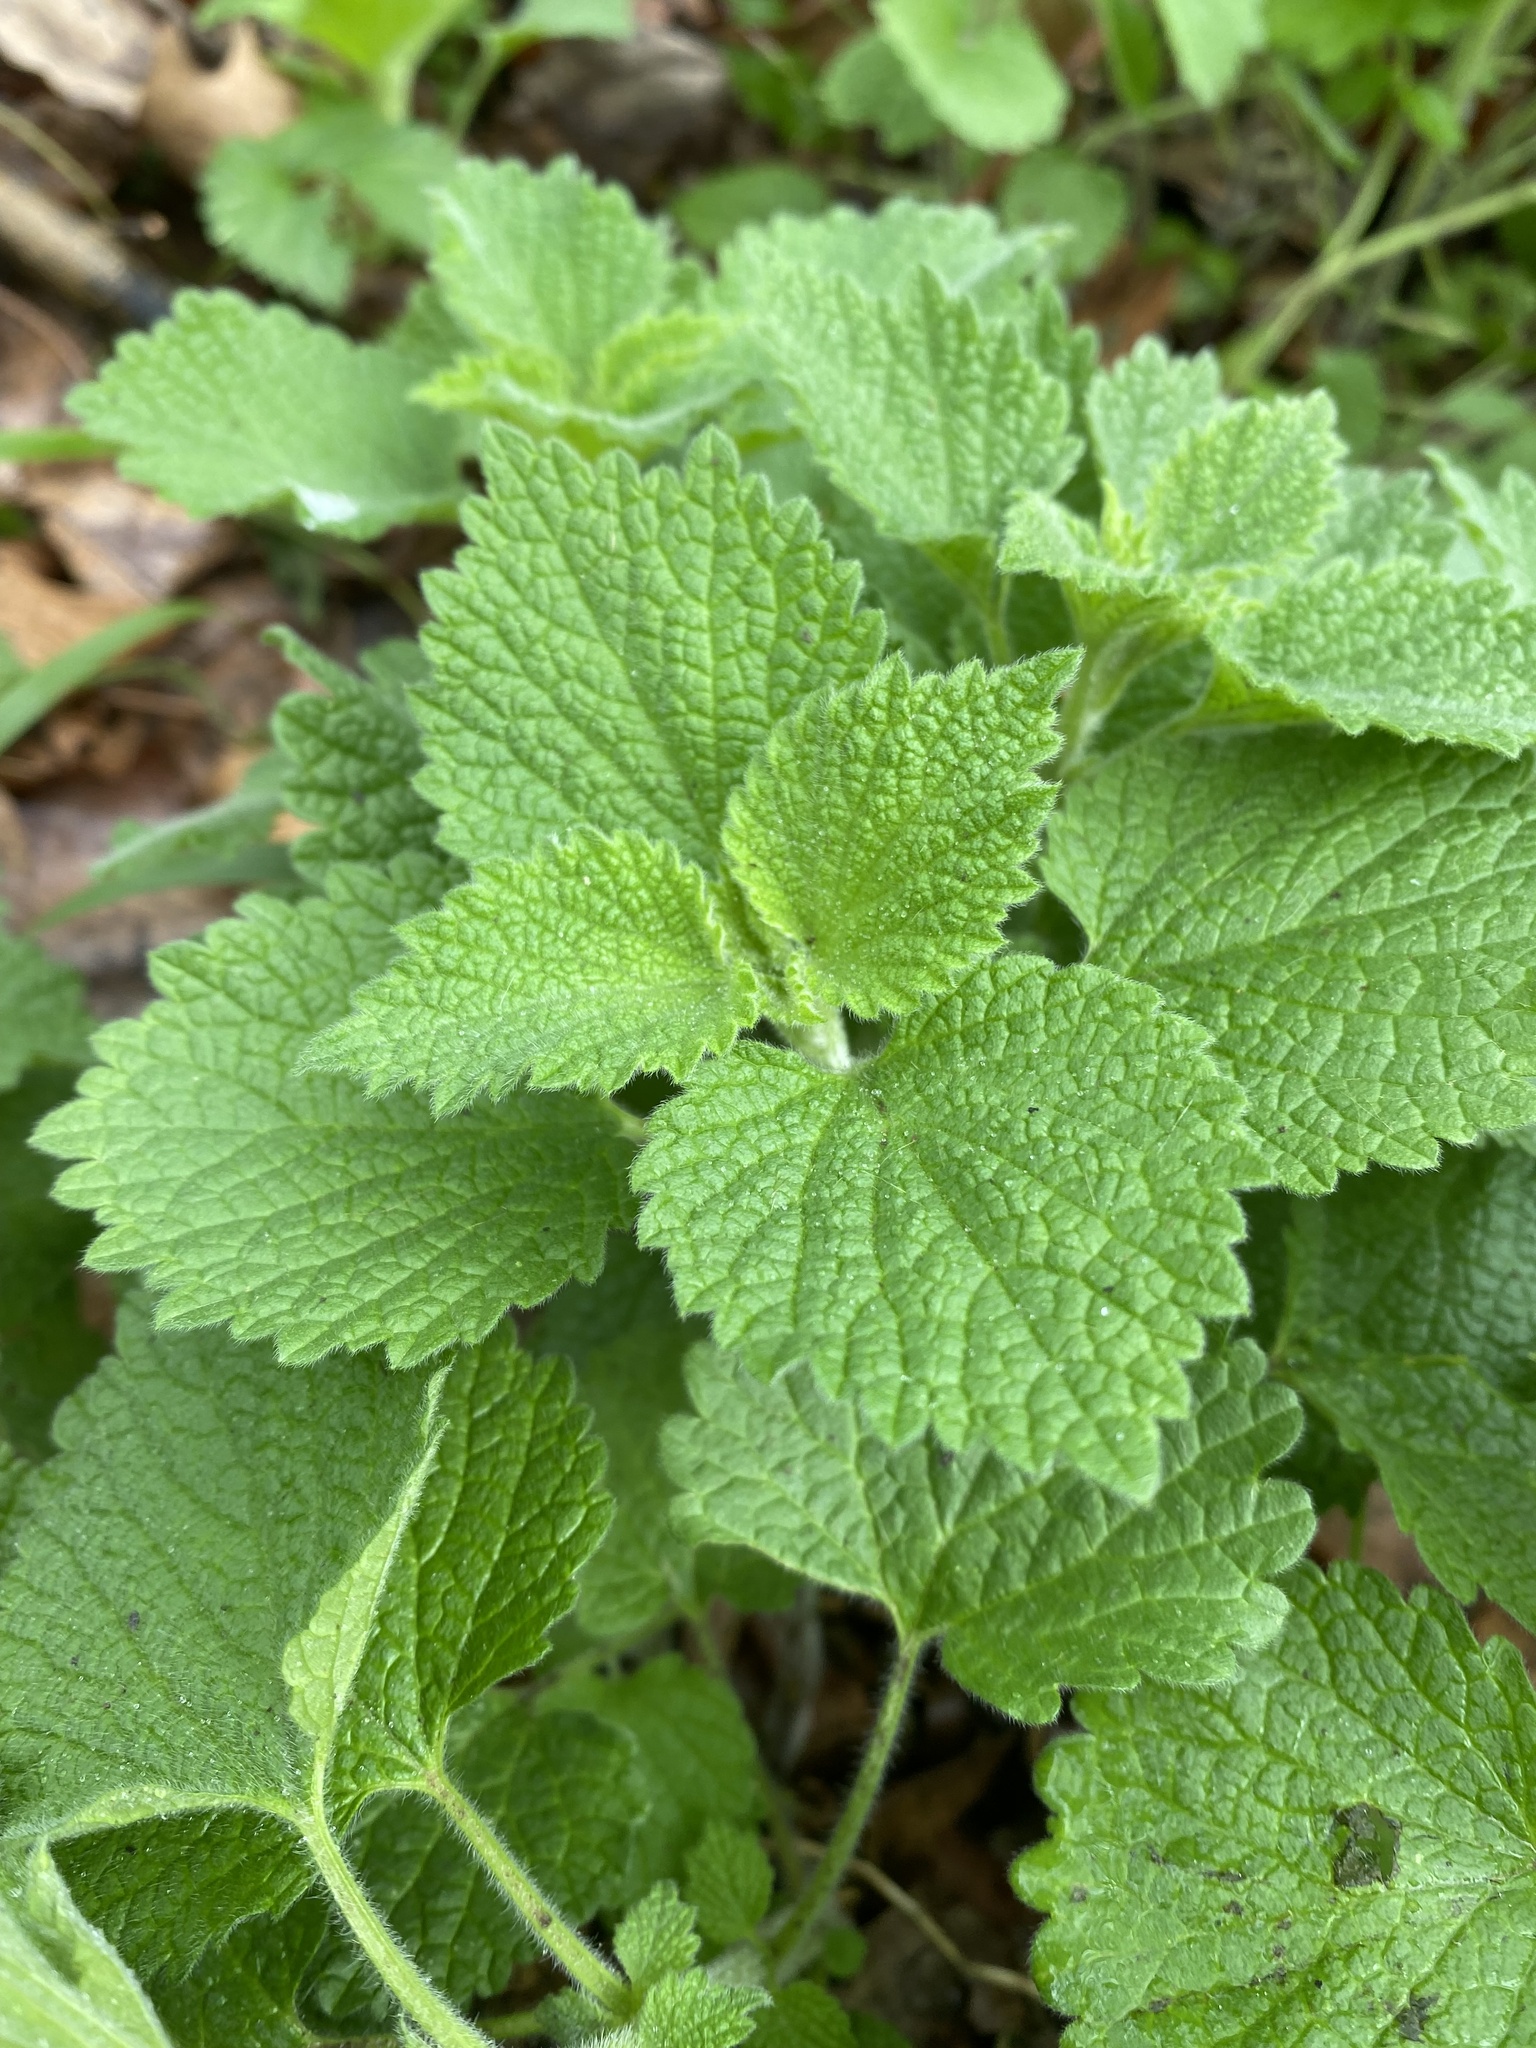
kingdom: Plantae
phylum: Tracheophyta
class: Magnoliopsida
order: Lamiales
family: Lamiaceae
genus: Ballota
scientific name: Ballota nigra
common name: Black horehound
